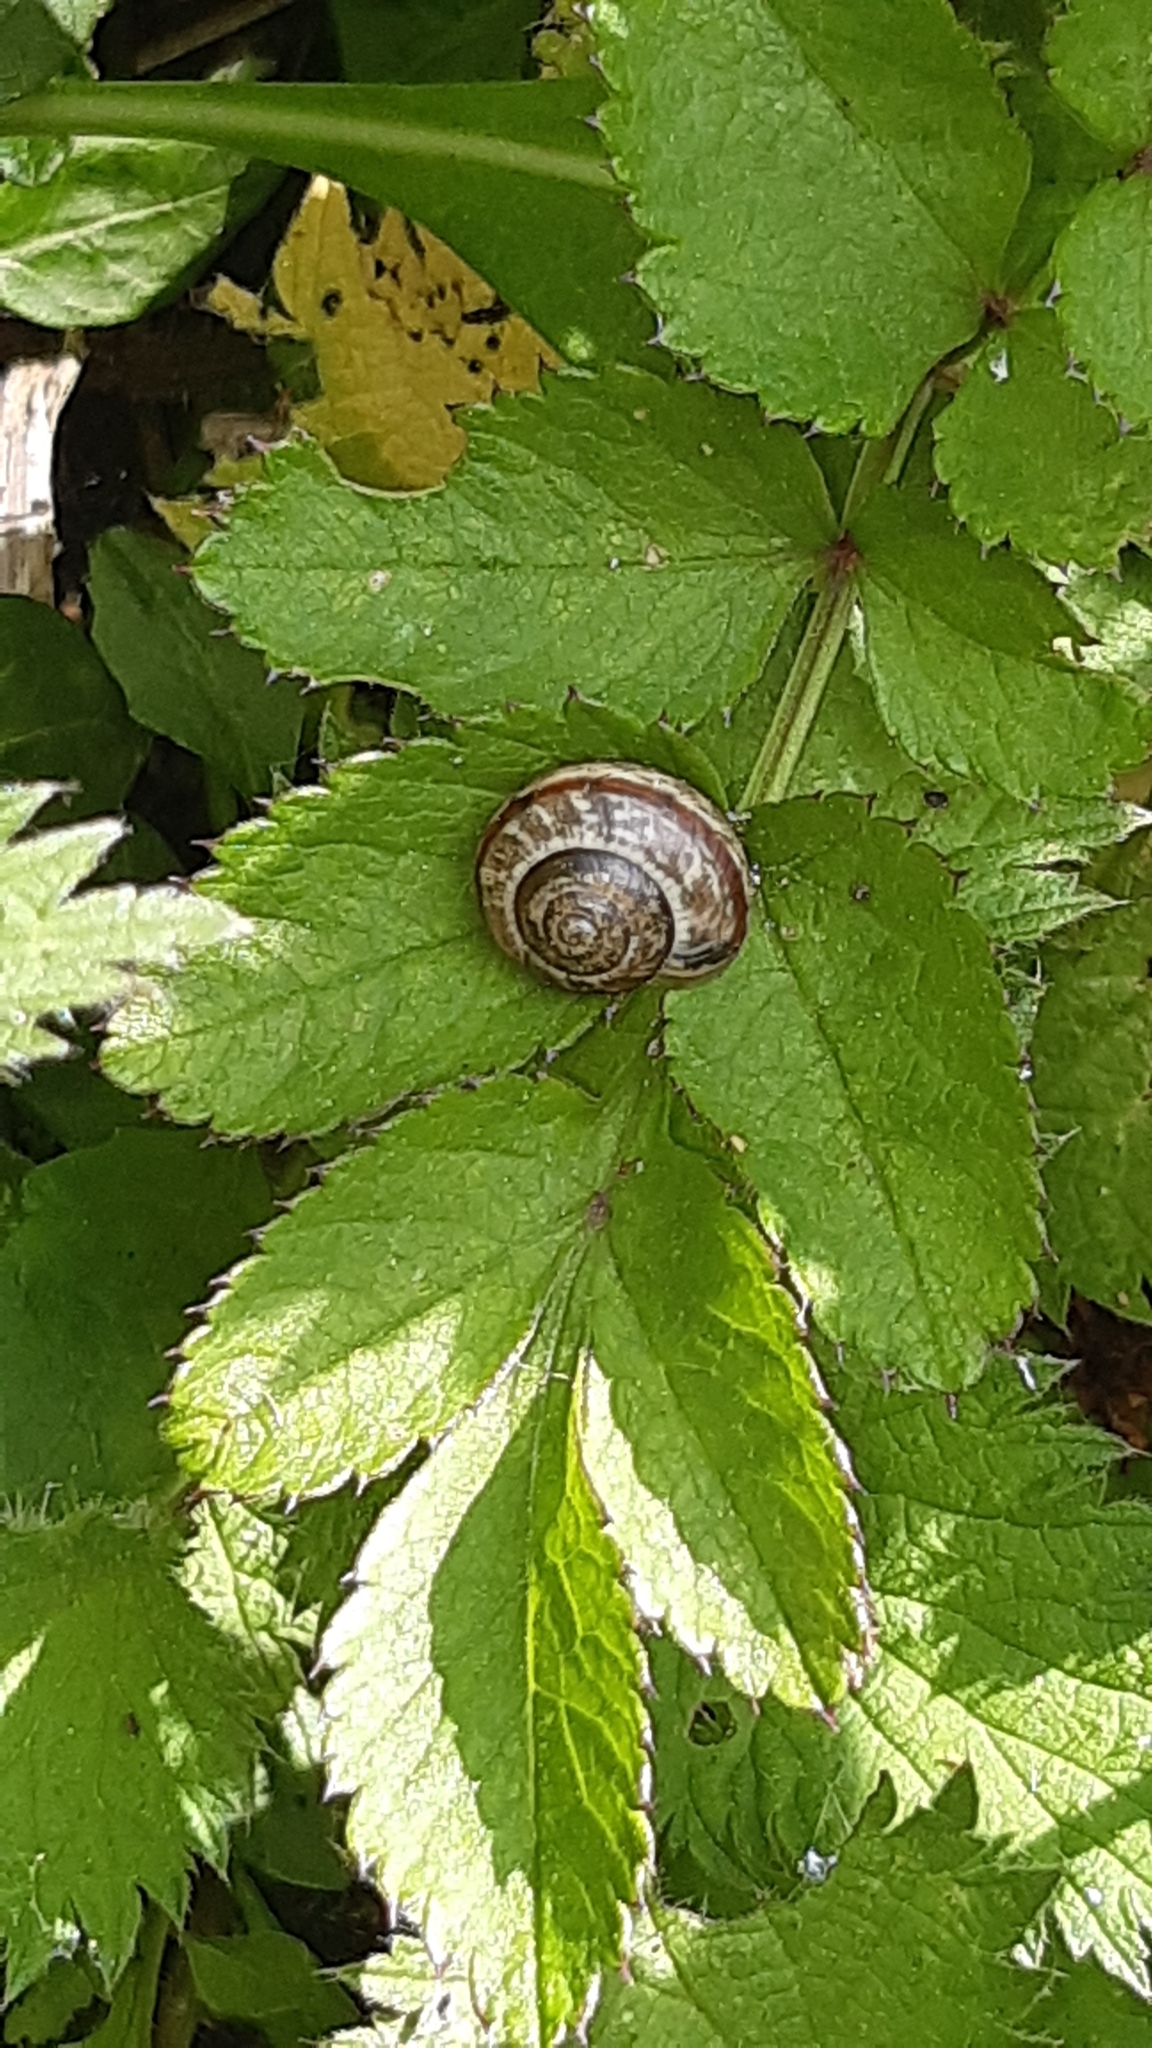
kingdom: Animalia
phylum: Mollusca
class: Gastropoda
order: Stylommatophora
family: Helicidae
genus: Arianta
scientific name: Arianta arbustorum
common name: Copse snail
